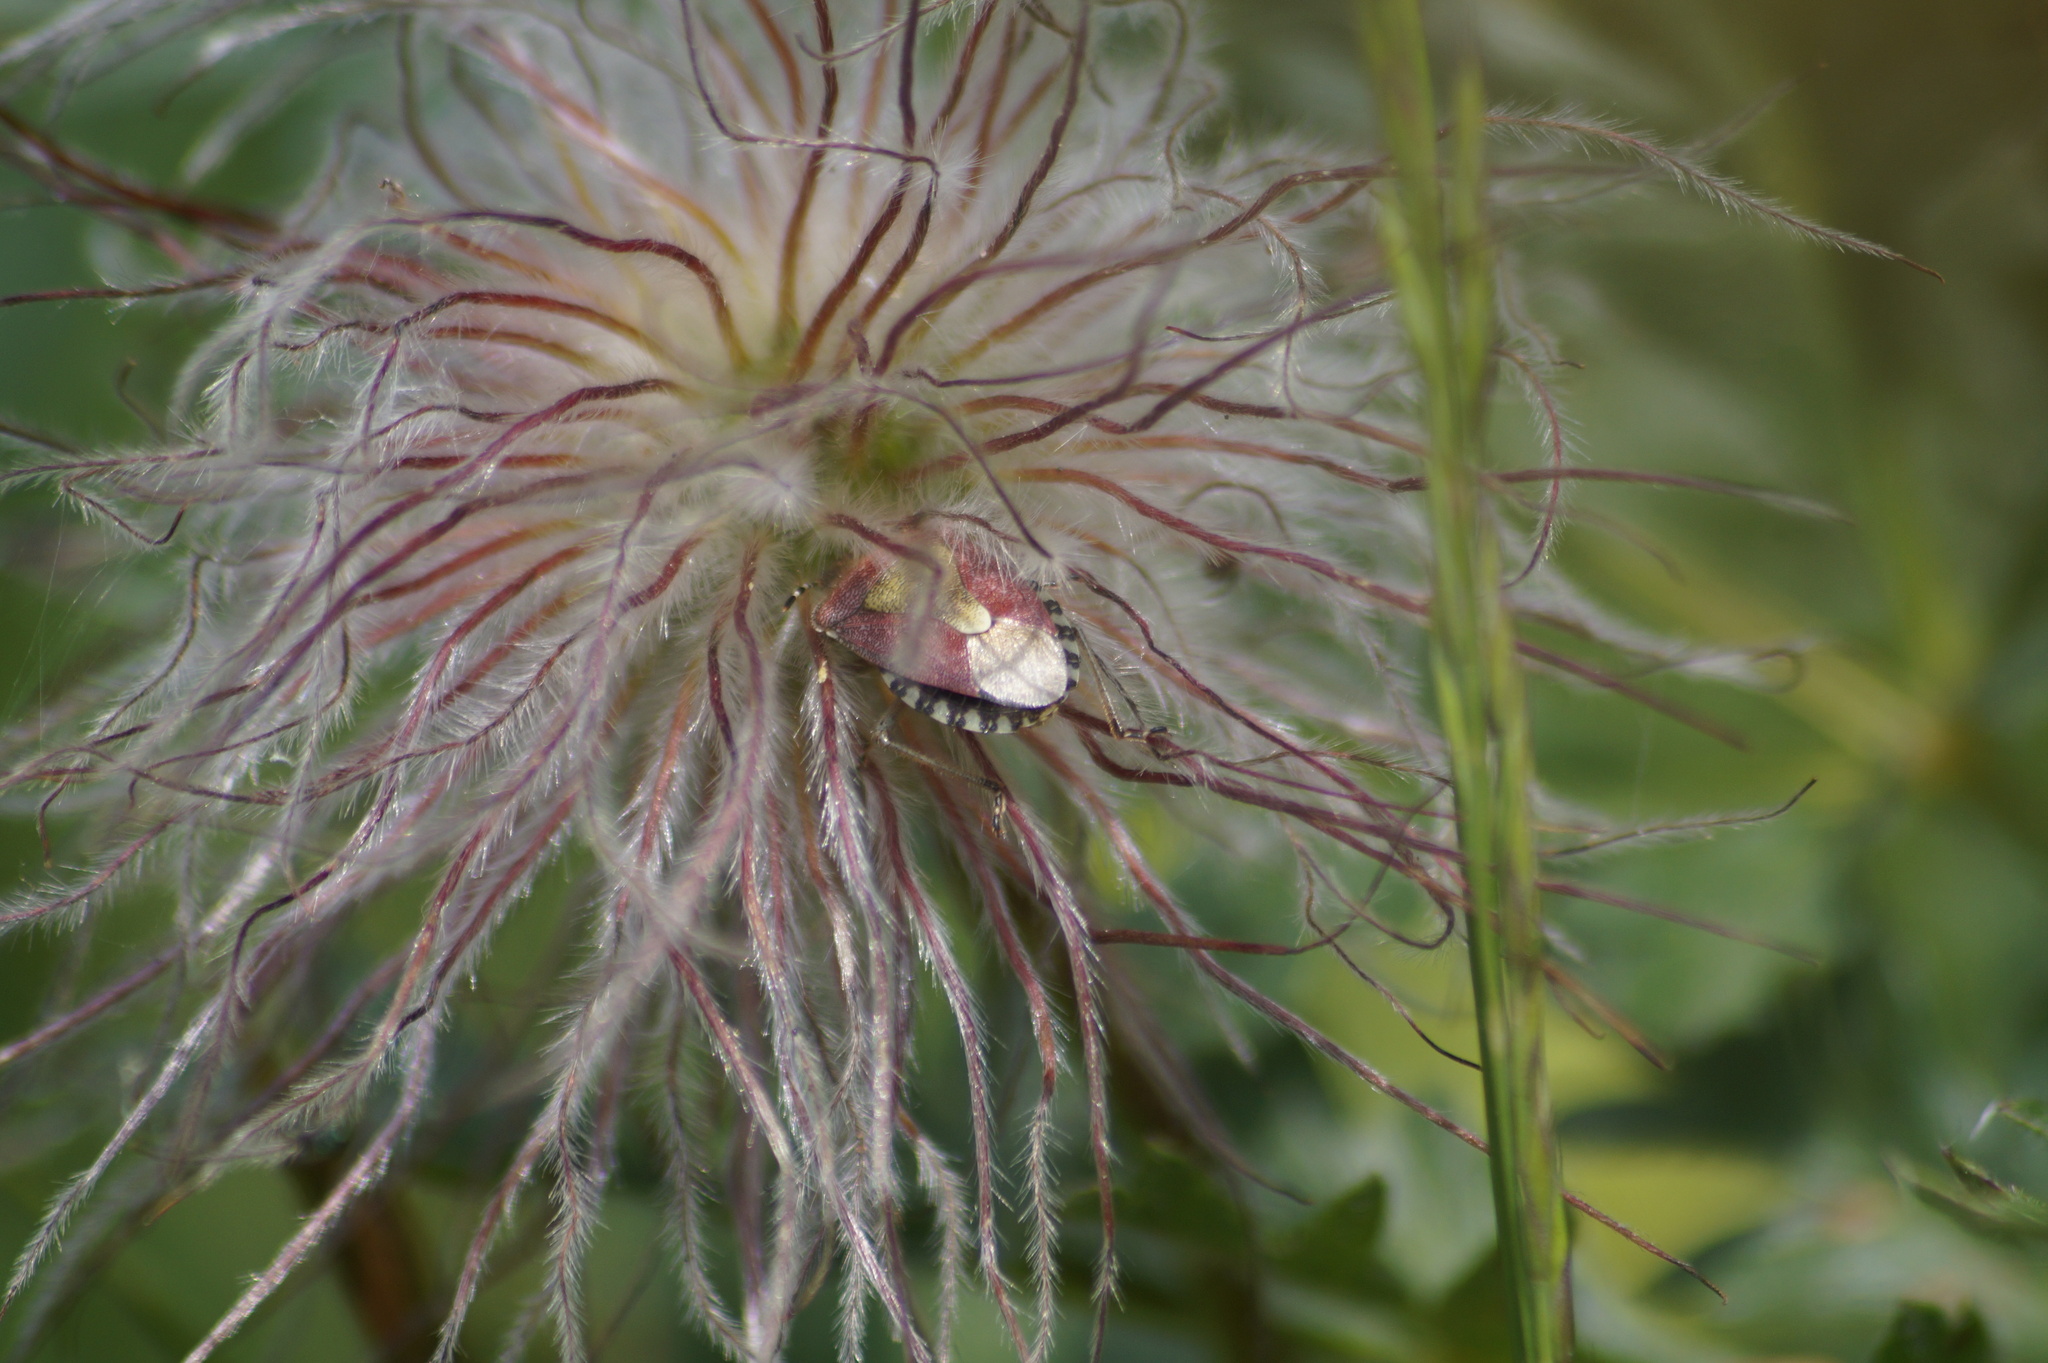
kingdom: Animalia
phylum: Arthropoda
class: Insecta
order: Hemiptera
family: Pentatomidae
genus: Dolycoris
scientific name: Dolycoris baccarum
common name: Sloe bug
